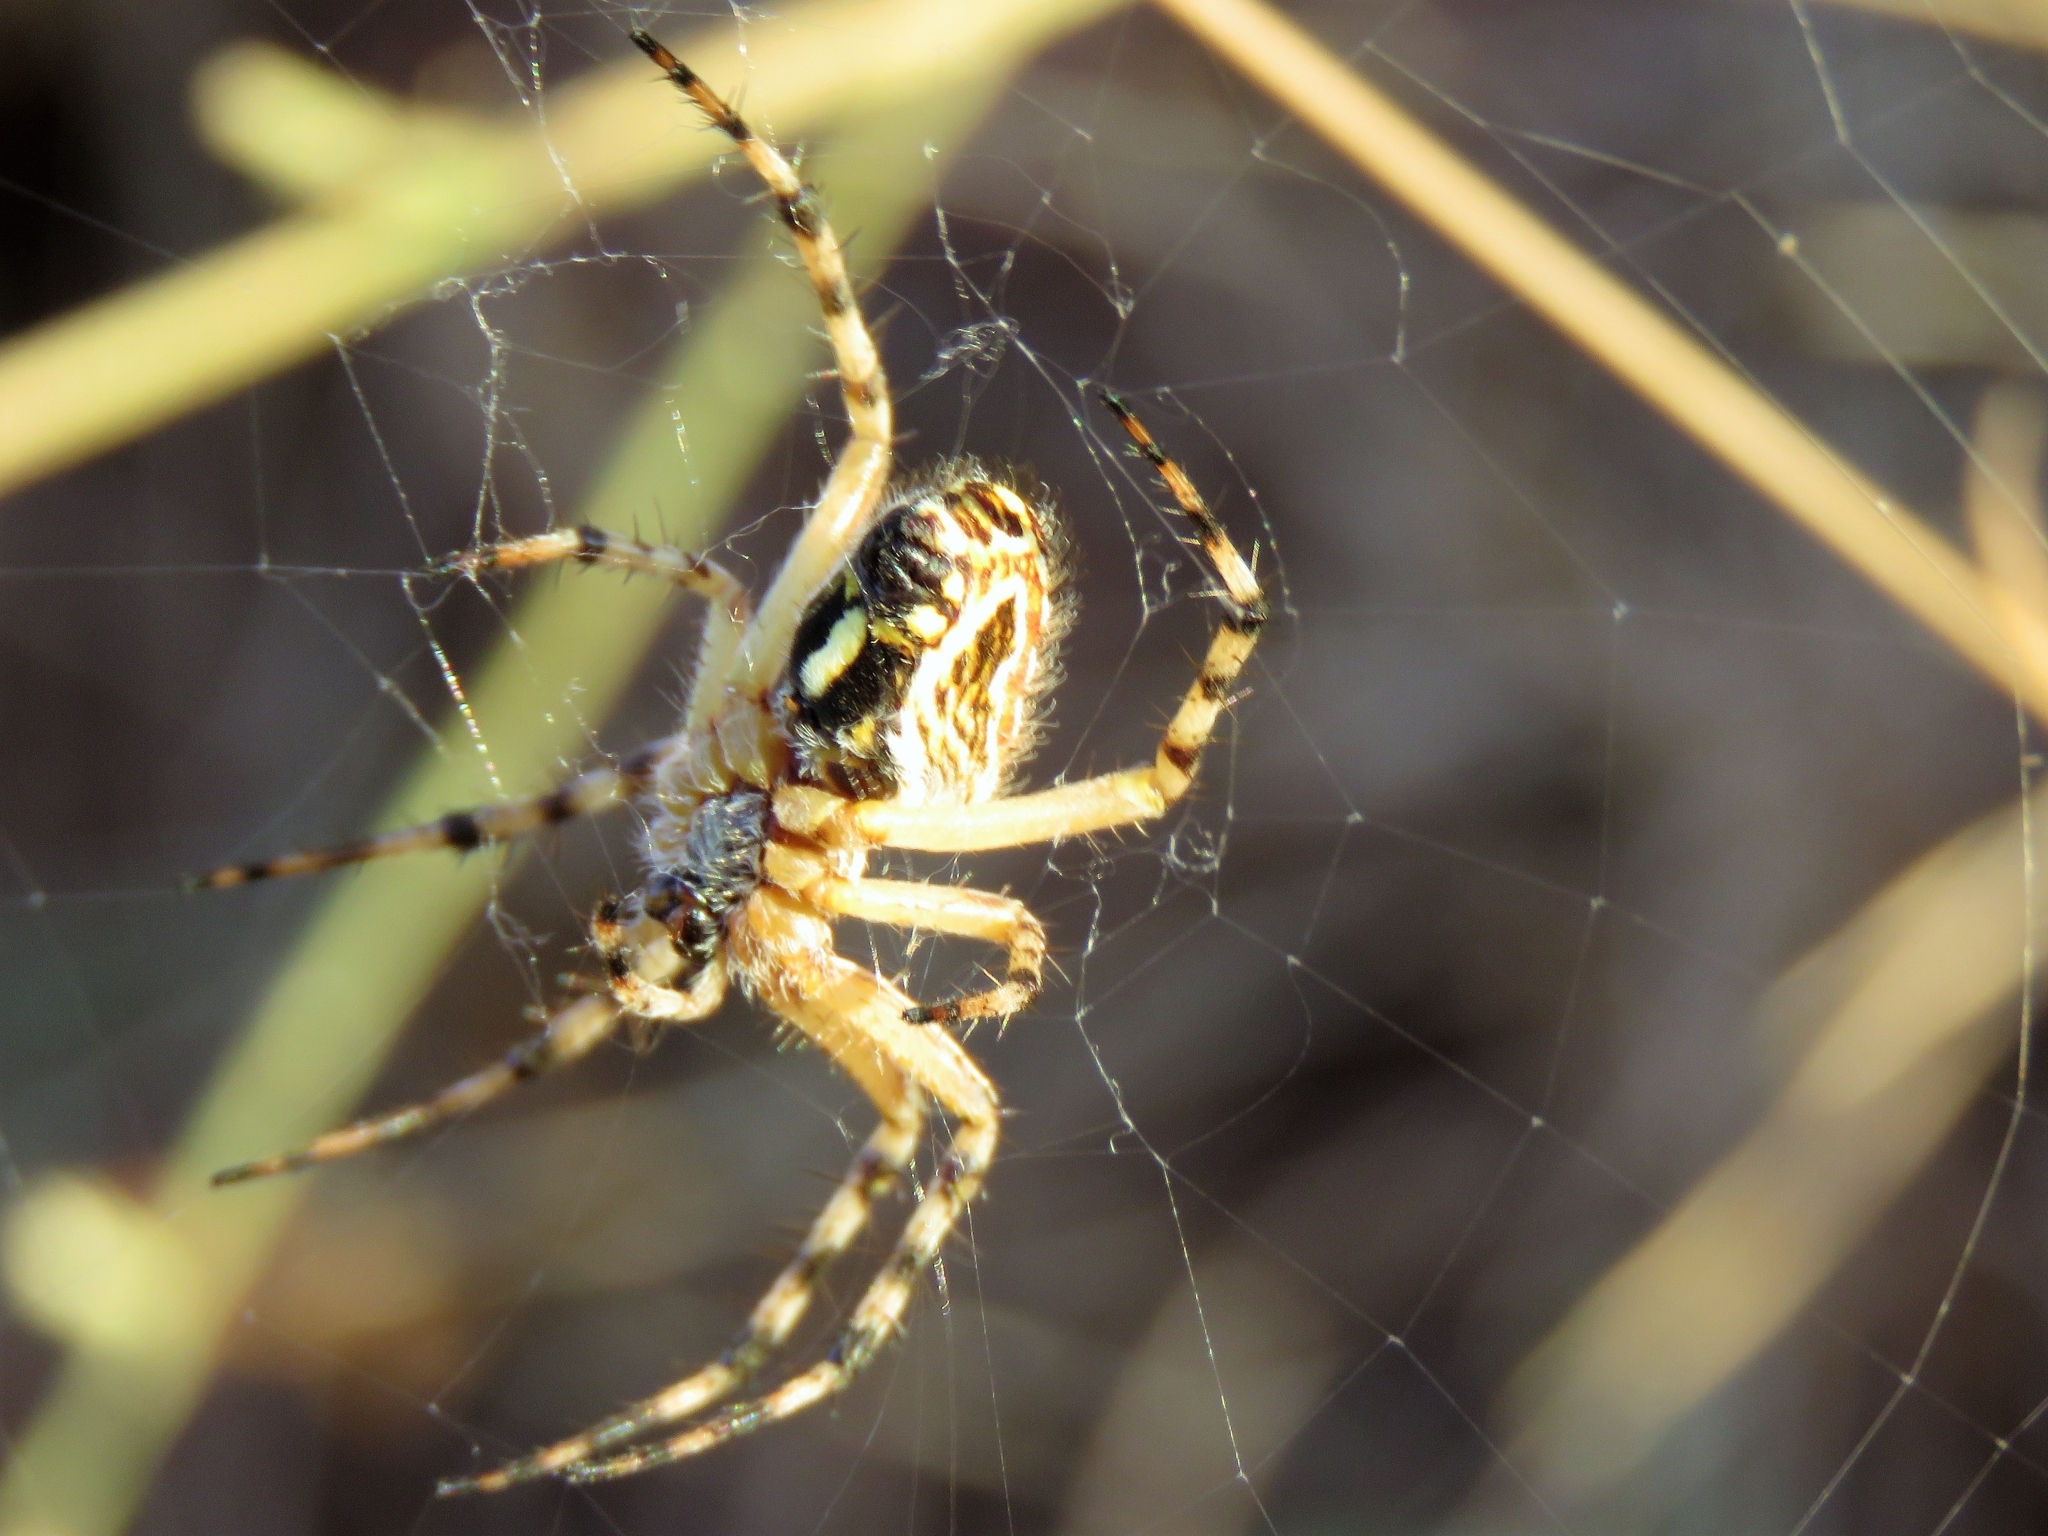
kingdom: Animalia
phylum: Arthropoda
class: Arachnida
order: Araneae
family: Araneidae
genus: Aculepeira
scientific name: Aculepeira armida
